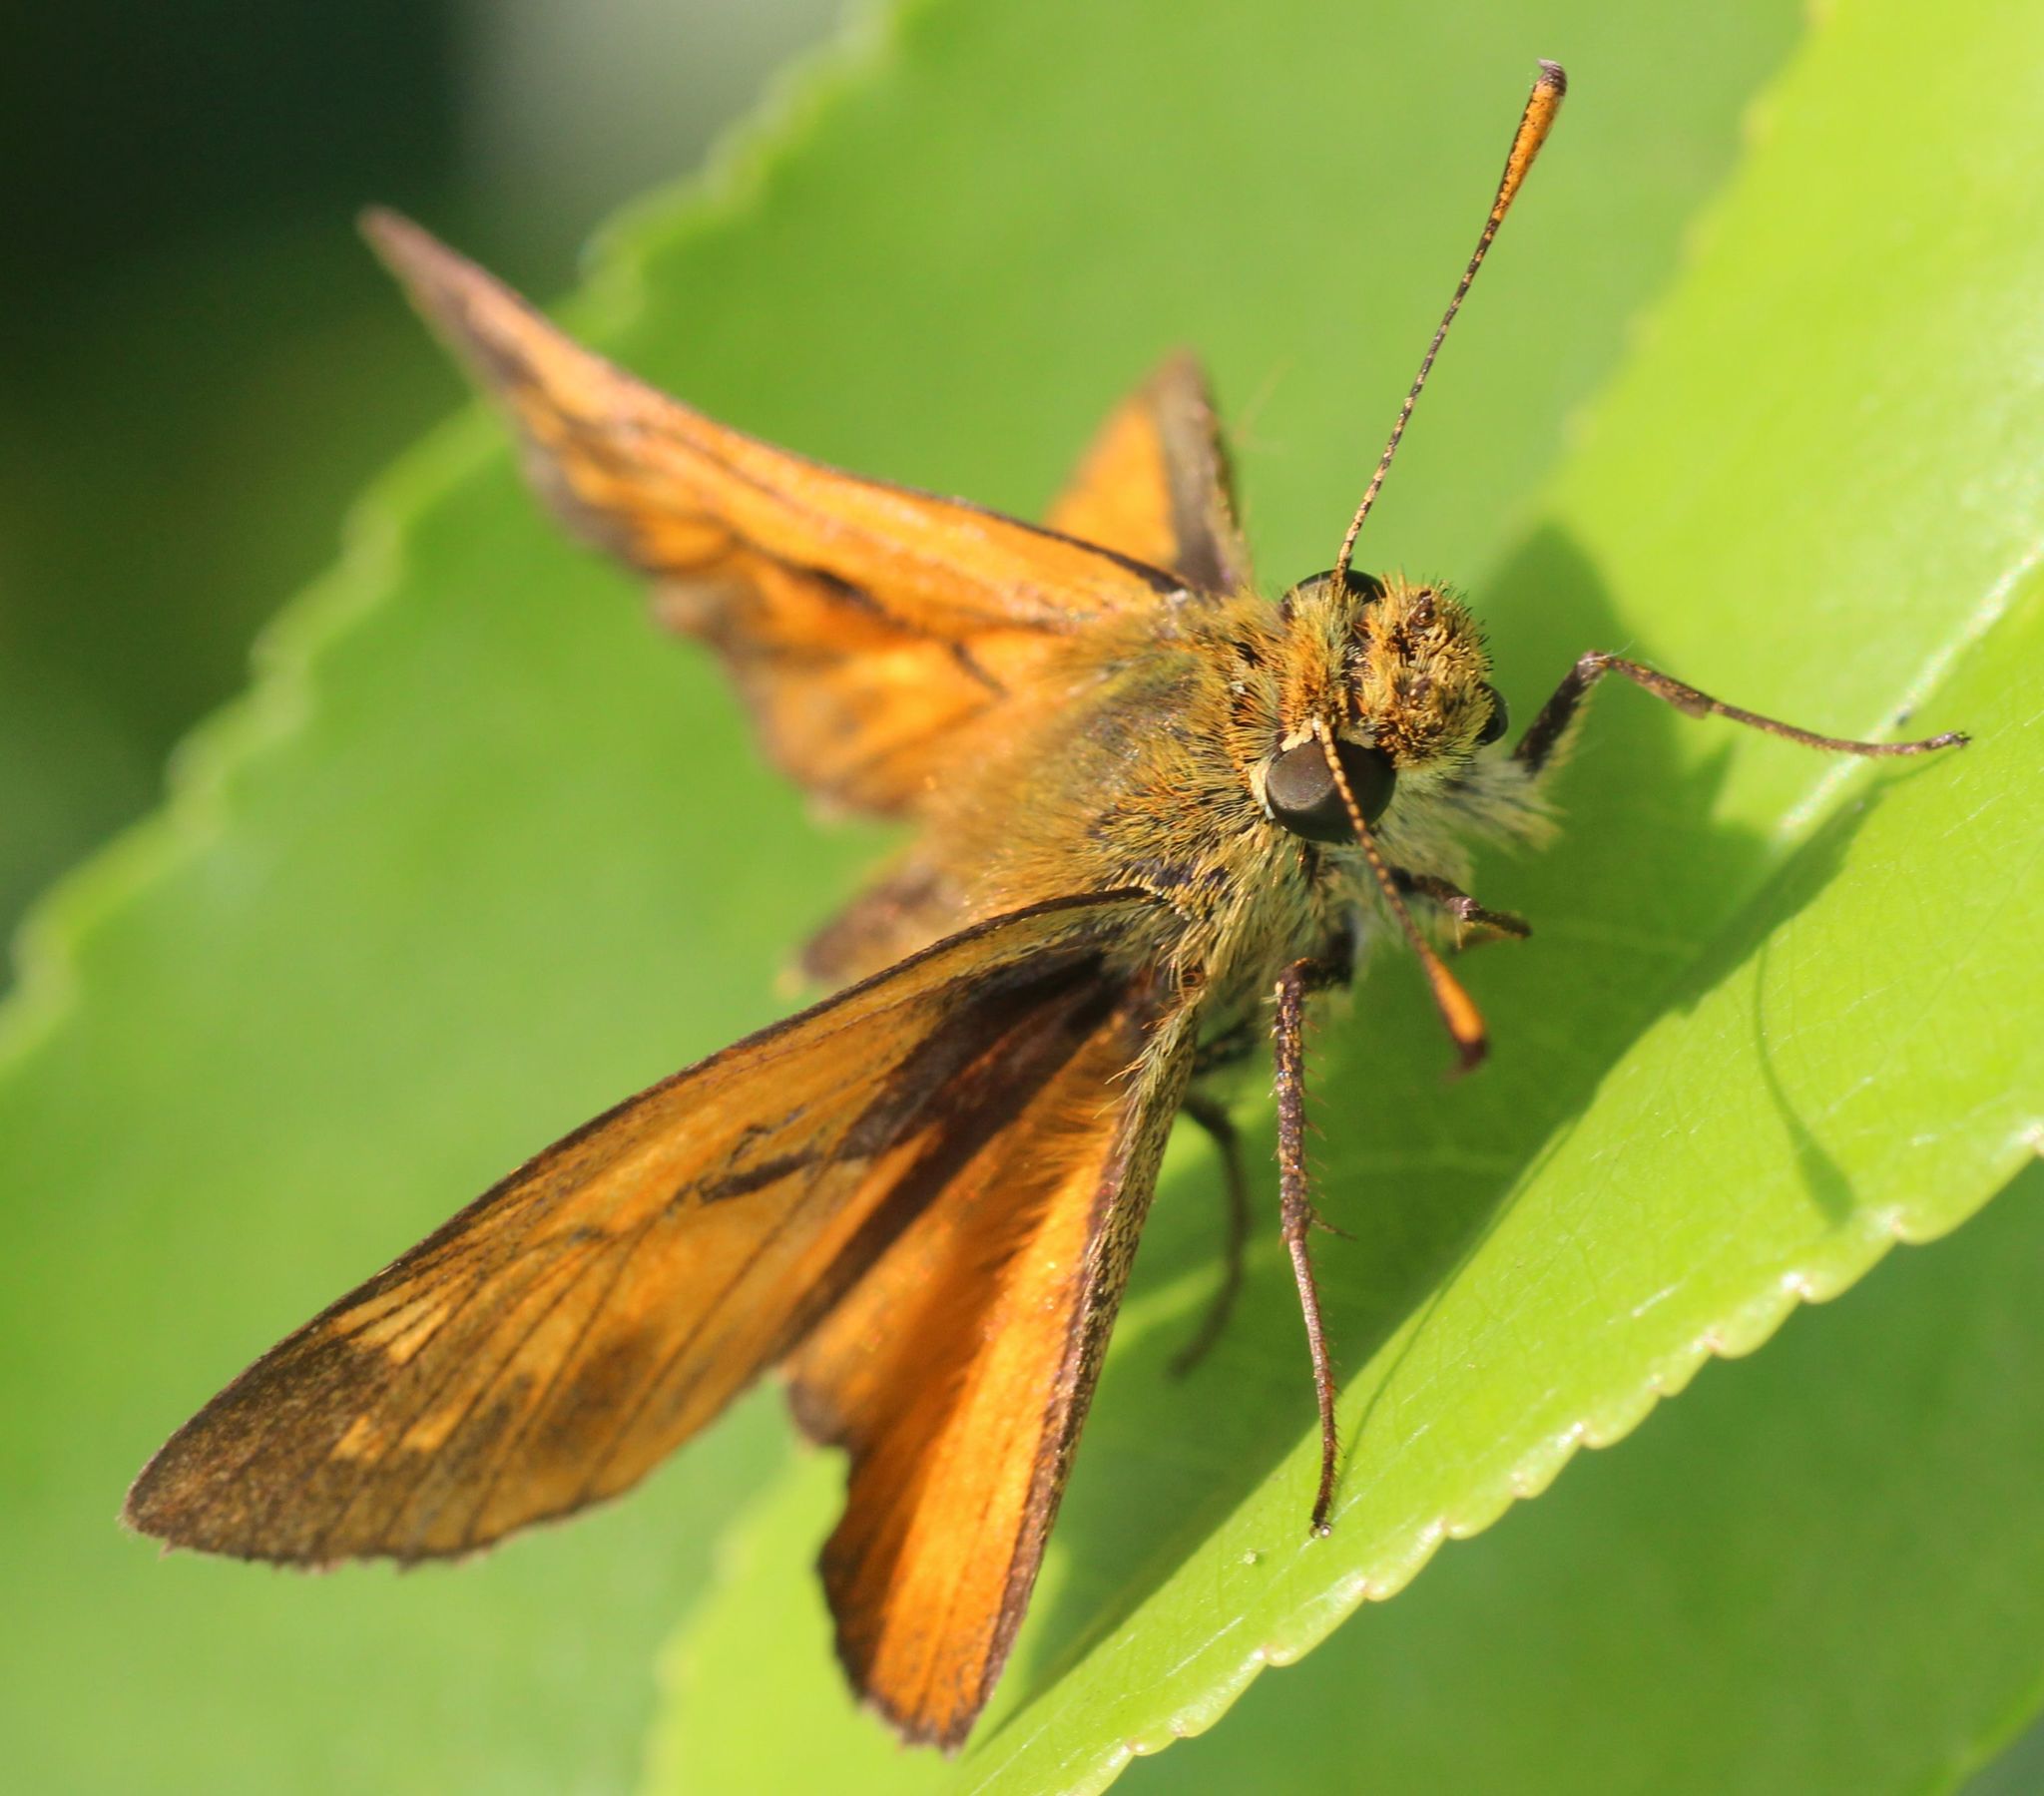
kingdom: Animalia
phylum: Arthropoda
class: Insecta
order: Lepidoptera
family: Hesperiidae
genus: Ochlodes
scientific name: Ochlodes venata
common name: Large skipper
